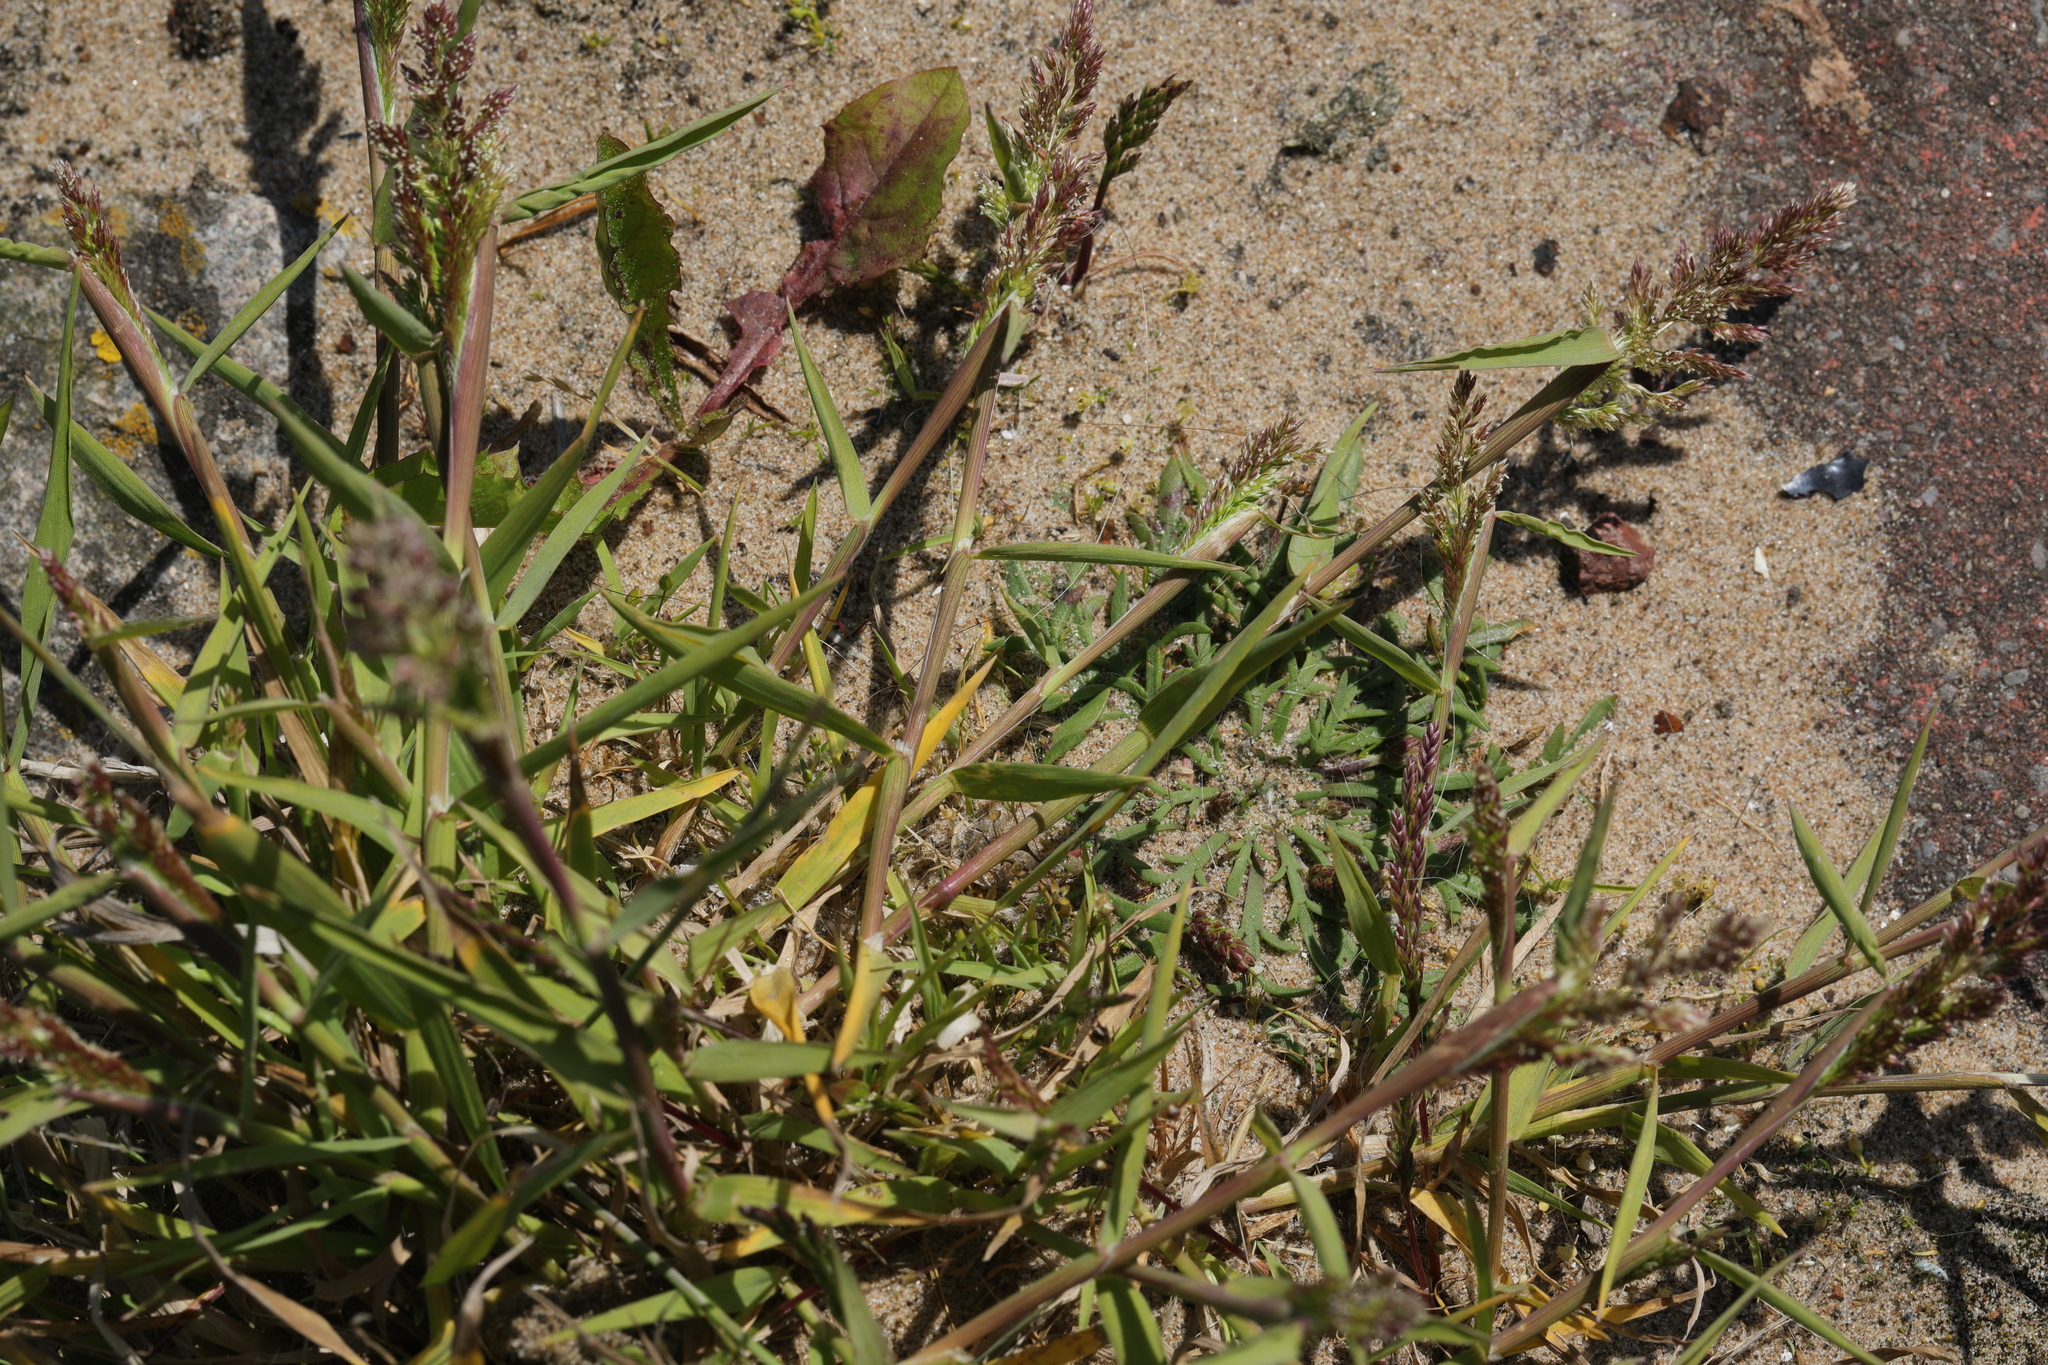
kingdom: Plantae
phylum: Tracheophyta
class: Liliopsida
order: Poales
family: Poaceae
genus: Polypogon
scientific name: Polypogon viridis
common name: Water bent
